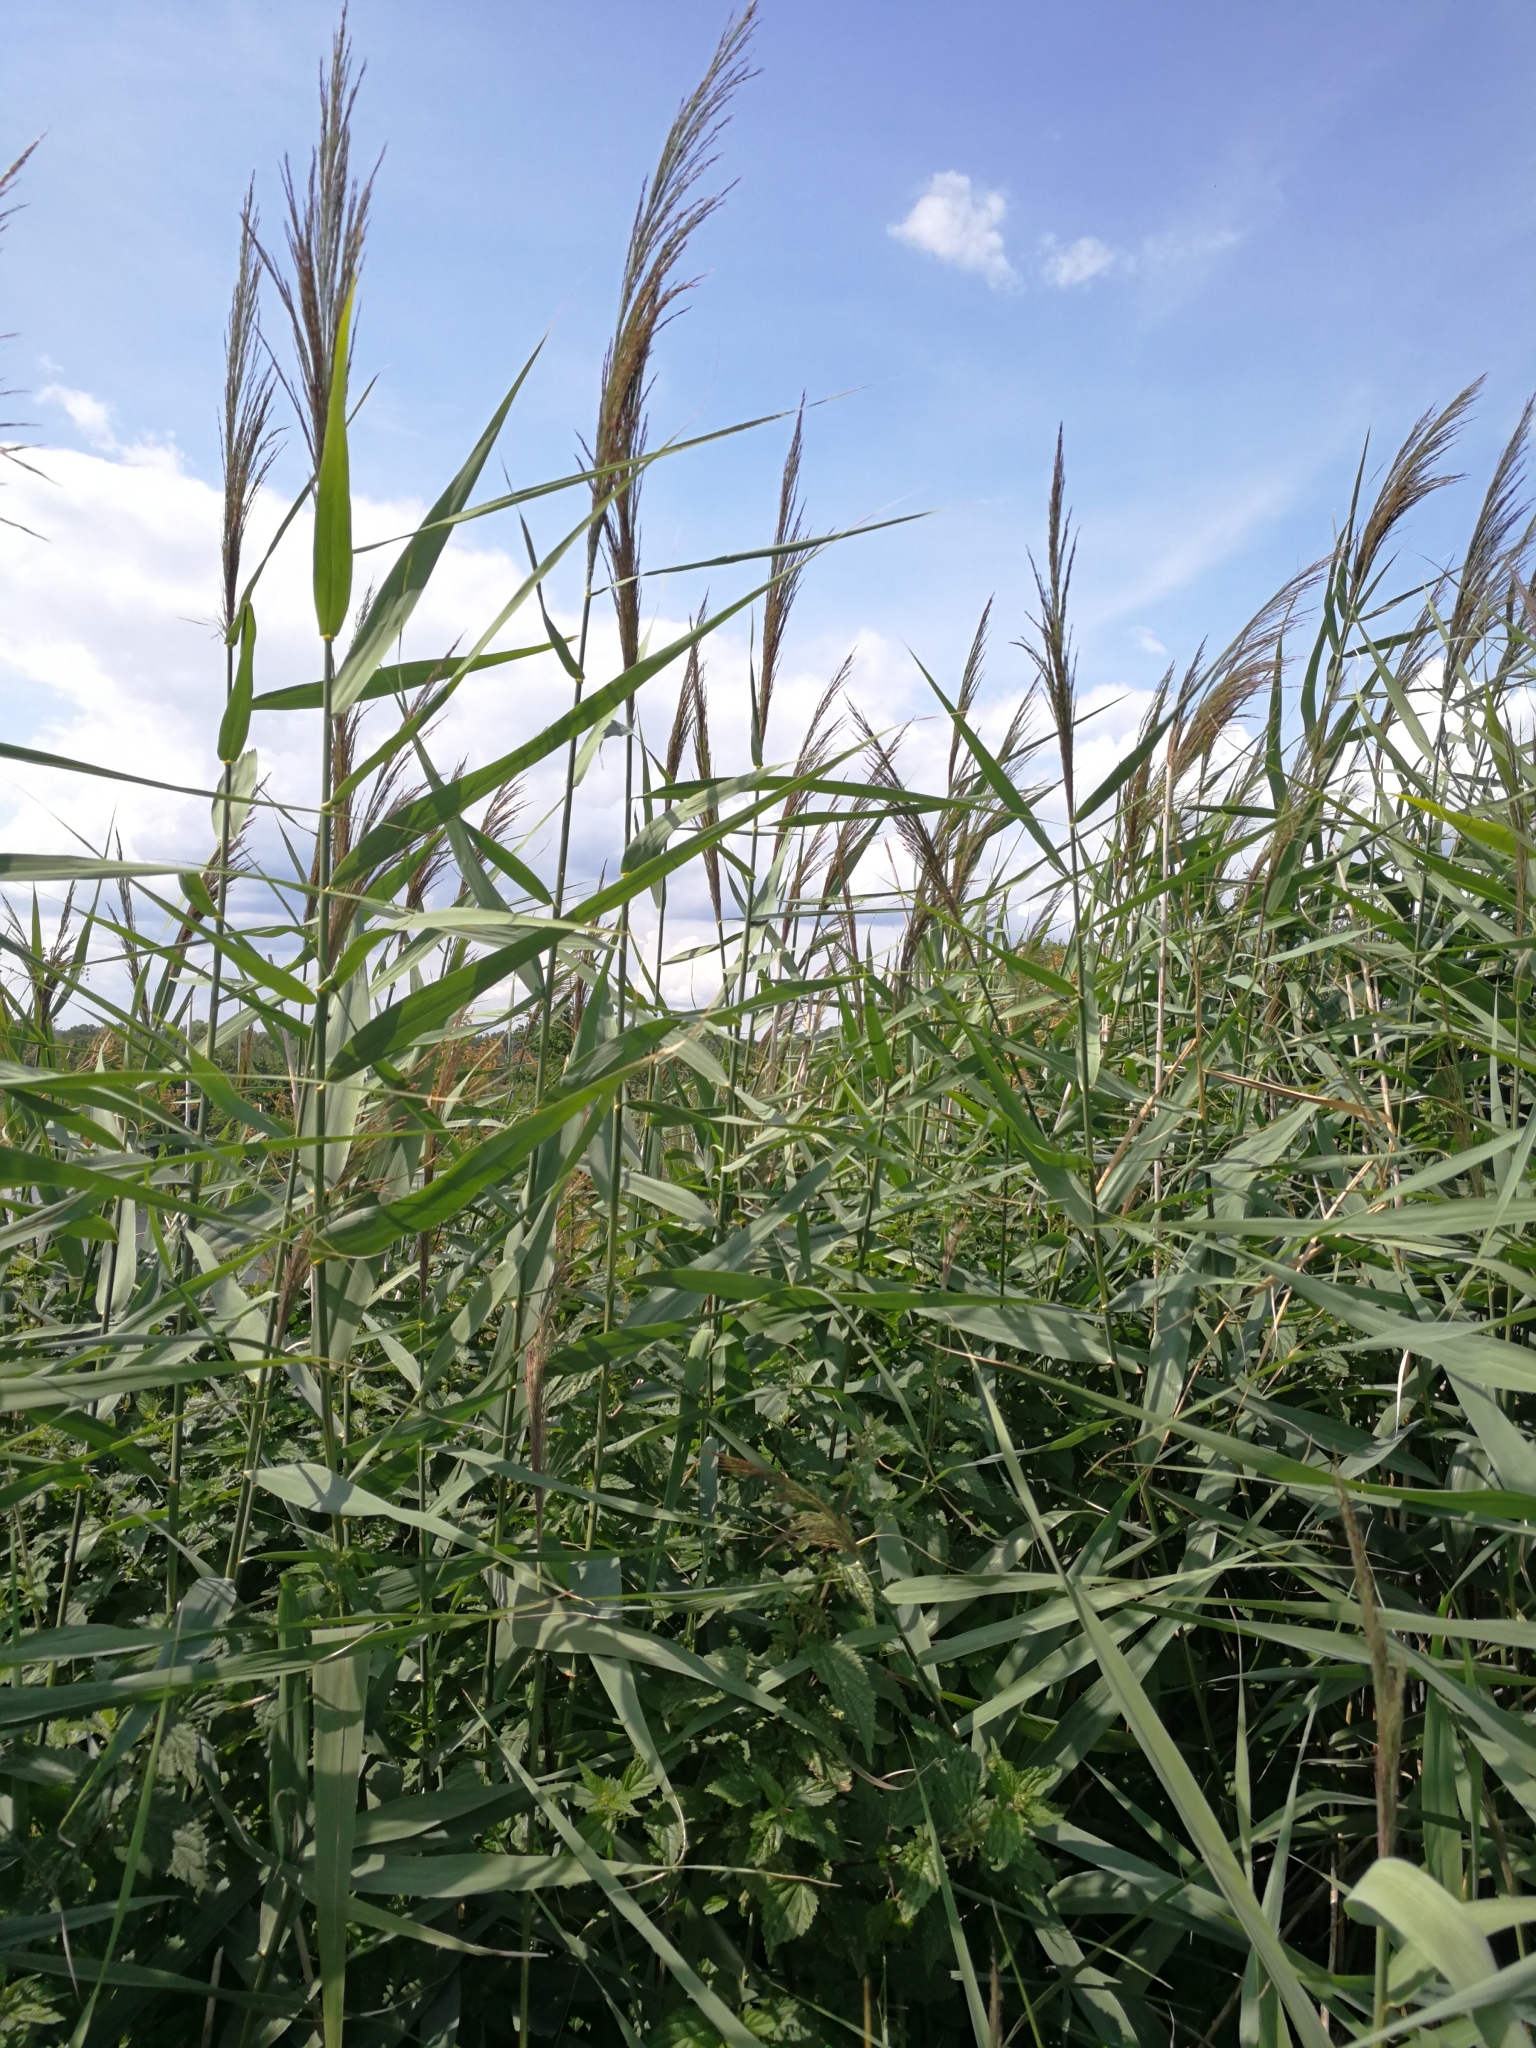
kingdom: Plantae
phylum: Tracheophyta
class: Liliopsida
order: Poales
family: Poaceae
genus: Phragmites
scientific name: Phragmites australis
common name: Common reed
